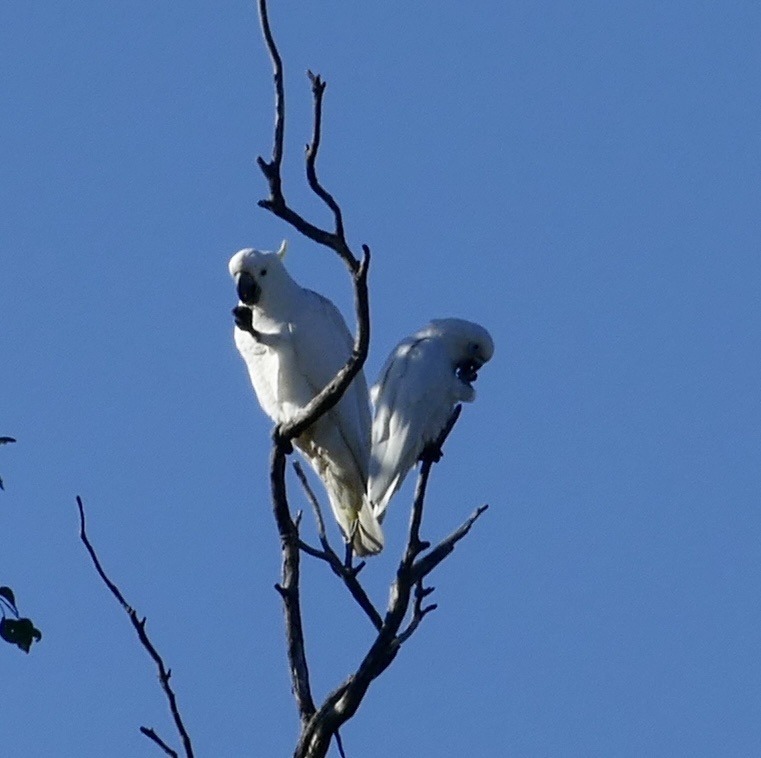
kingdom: Animalia
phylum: Chordata
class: Aves
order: Psittaciformes
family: Psittacidae
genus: Cacatua
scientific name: Cacatua galerita
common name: Sulphur-crested cockatoo
